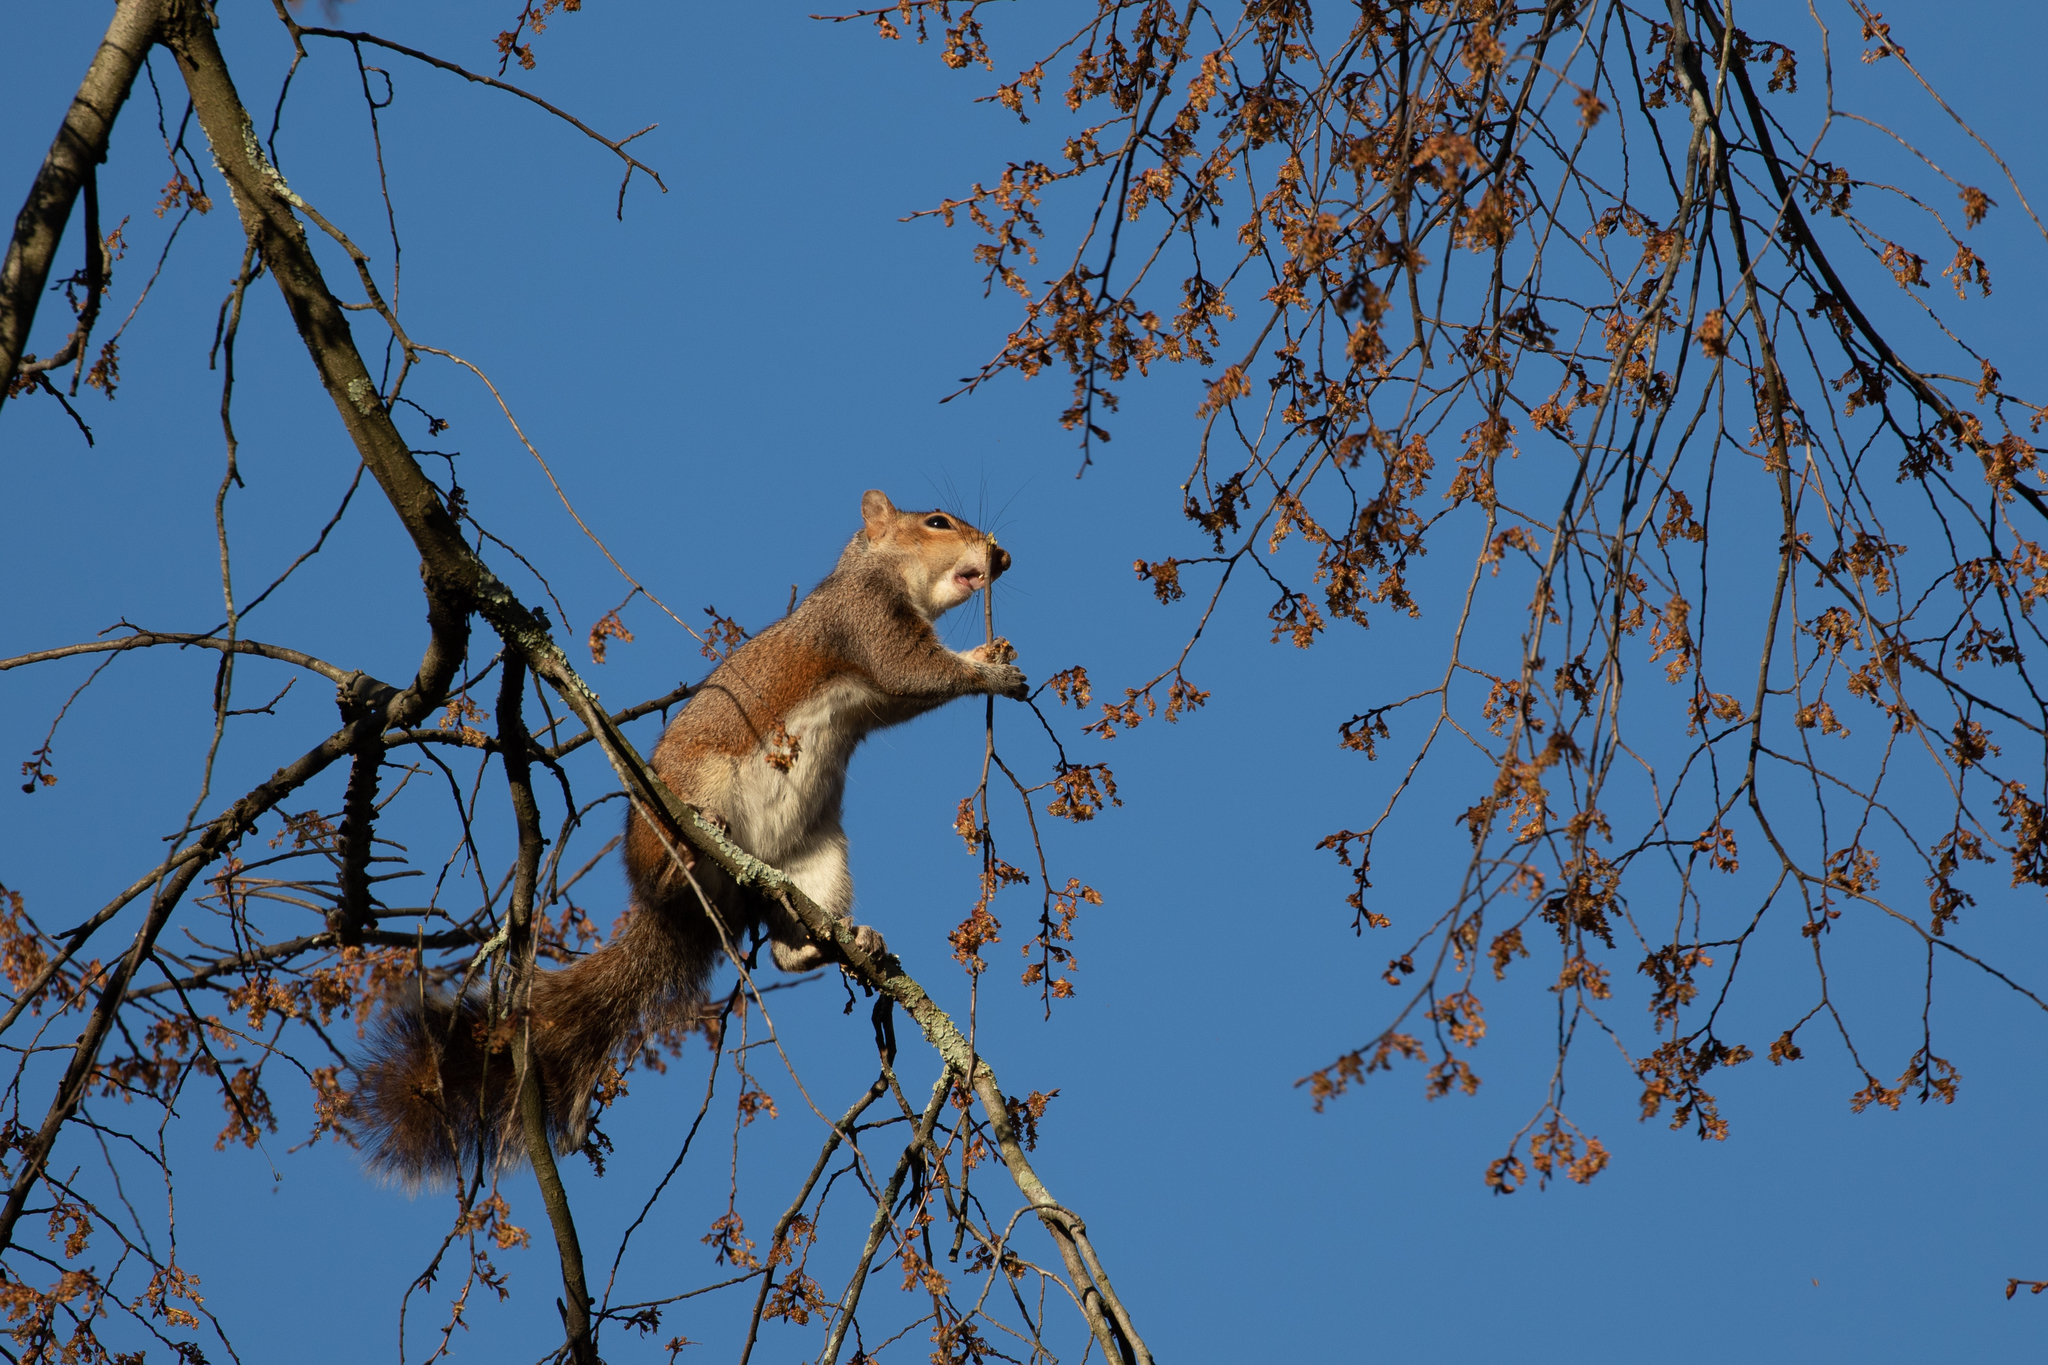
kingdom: Animalia
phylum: Chordata
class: Mammalia
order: Rodentia
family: Sciuridae
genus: Sciurus
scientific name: Sciurus carolinensis
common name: Eastern gray squirrel
